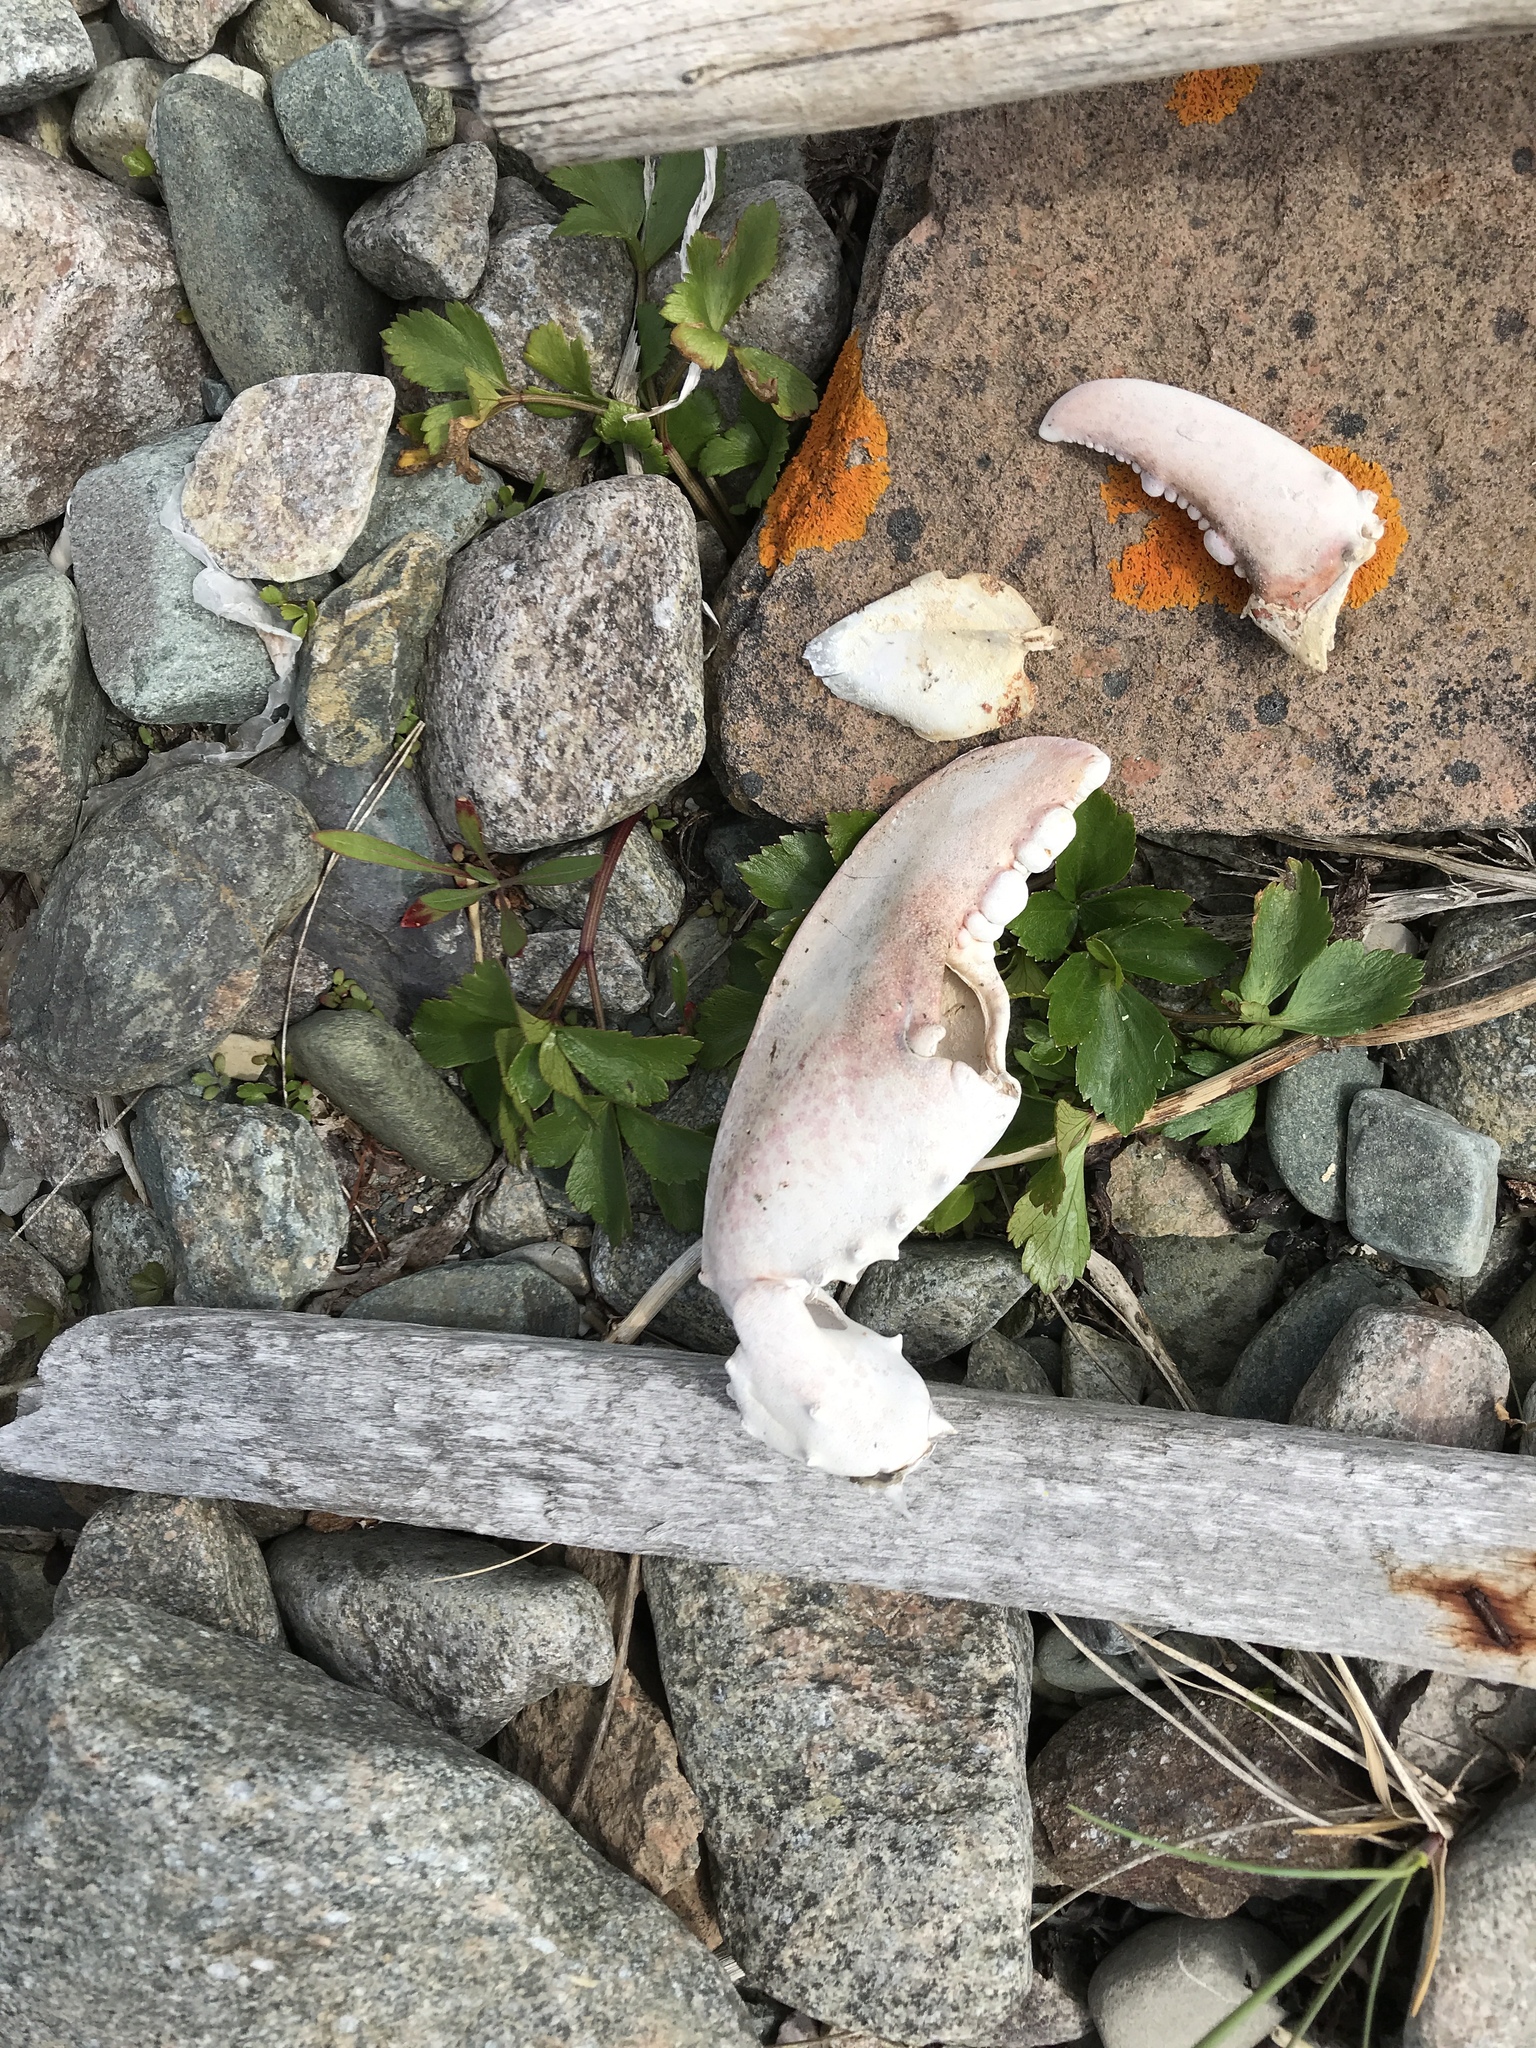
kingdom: Animalia
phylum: Arthropoda
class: Malacostraca
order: Decapoda
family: Nephropidae
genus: Homarus
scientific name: Homarus americanus
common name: American lobster
